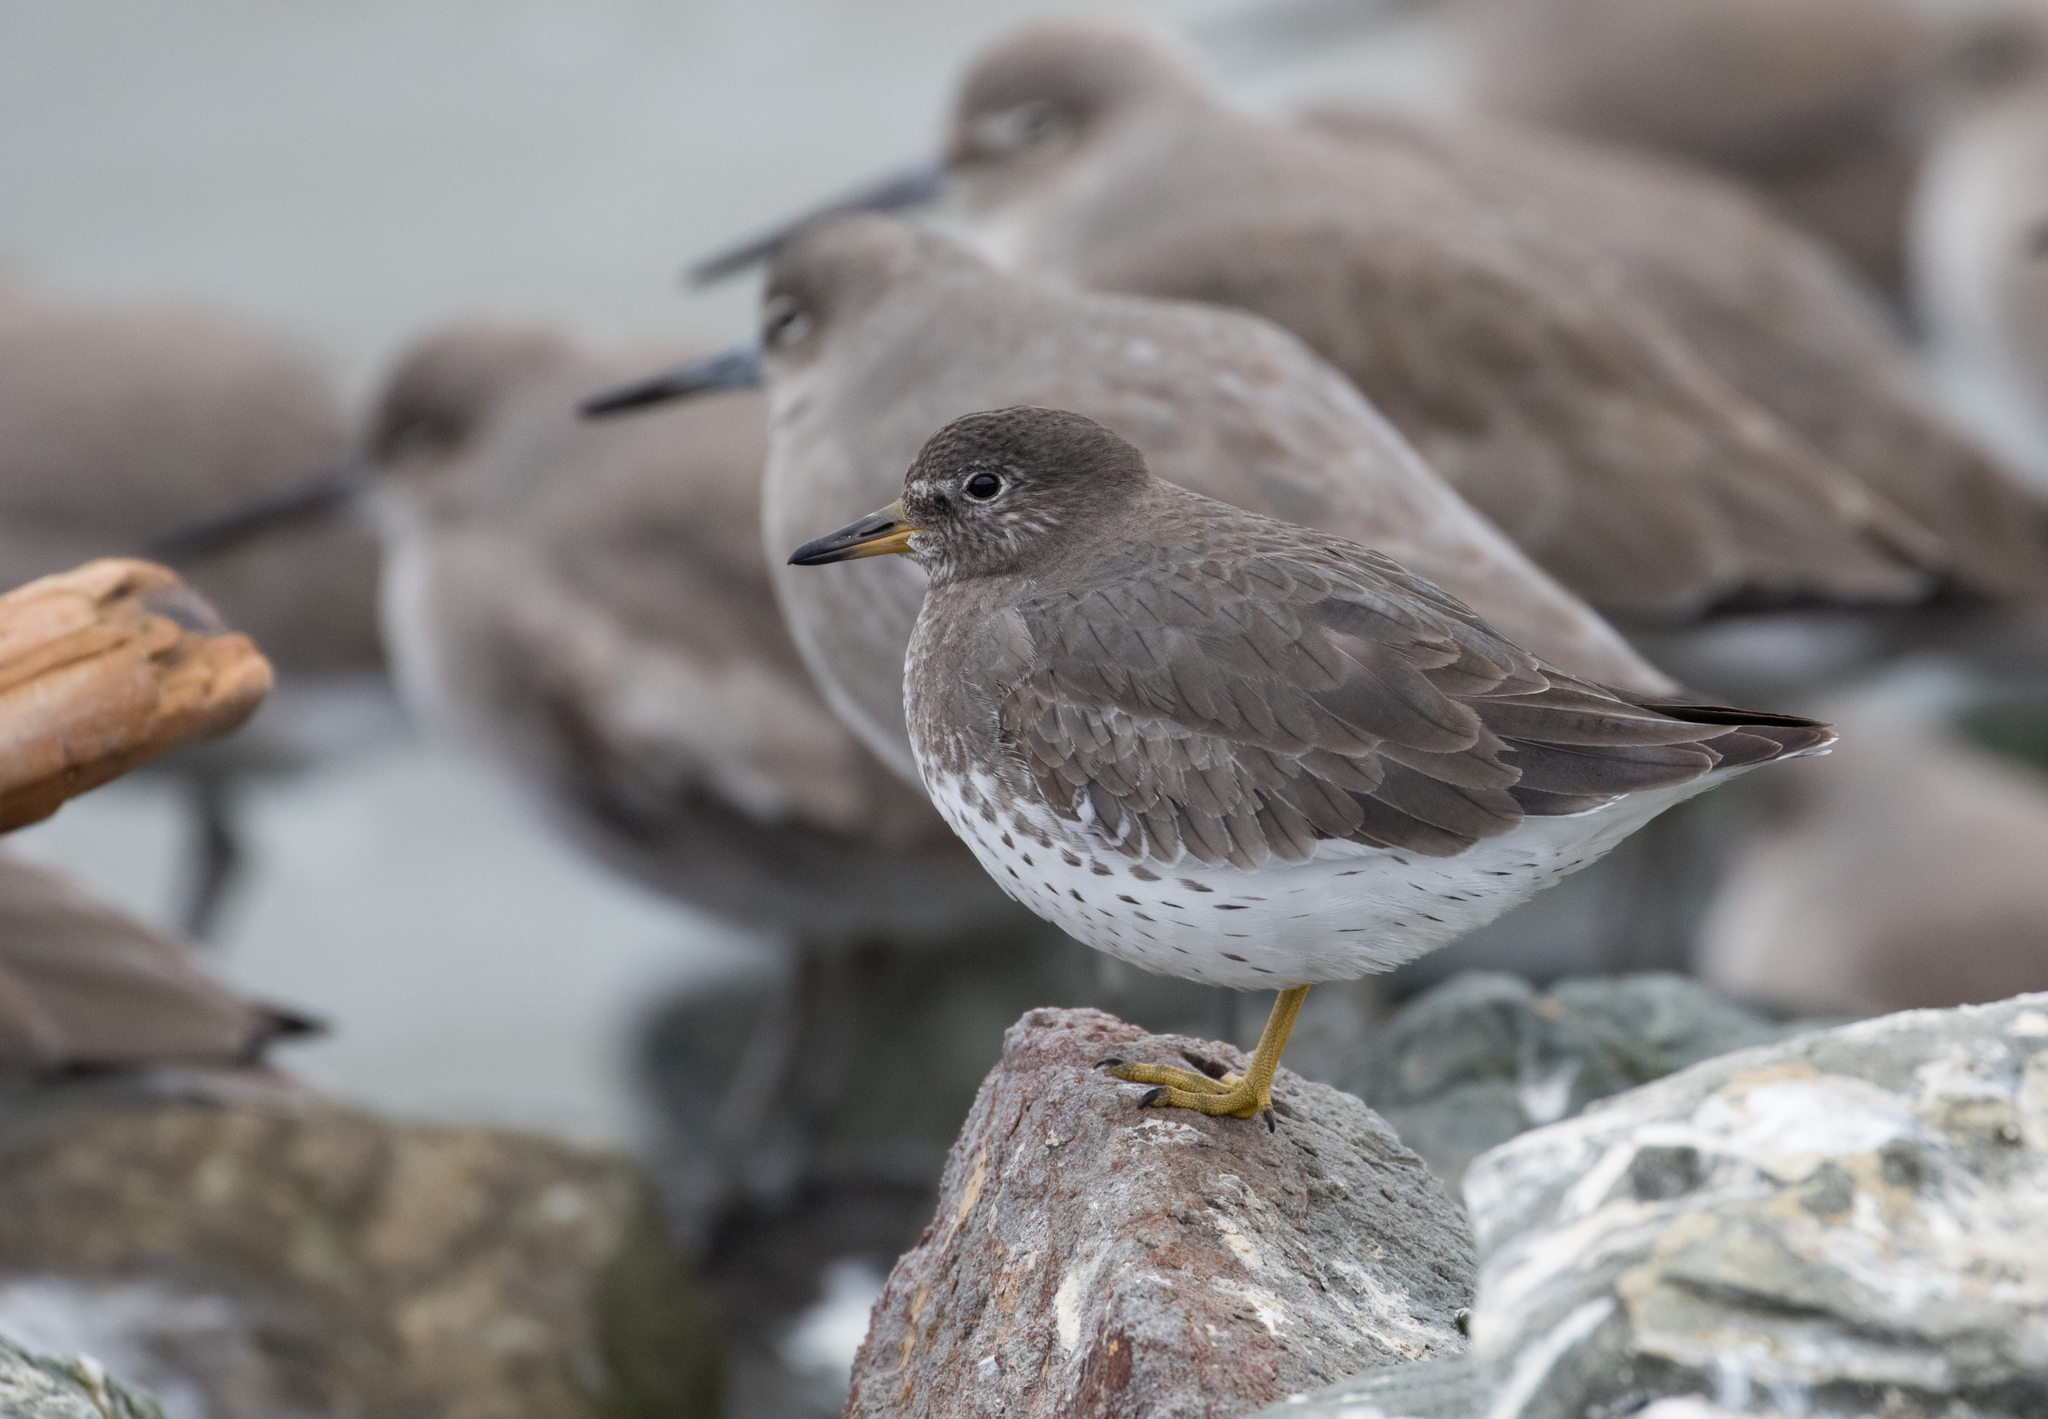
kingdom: Animalia
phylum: Chordata
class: Aves
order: Charadriiformes
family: Scolopacidae
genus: Calidris
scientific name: Calidris virgata
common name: Surfbird
